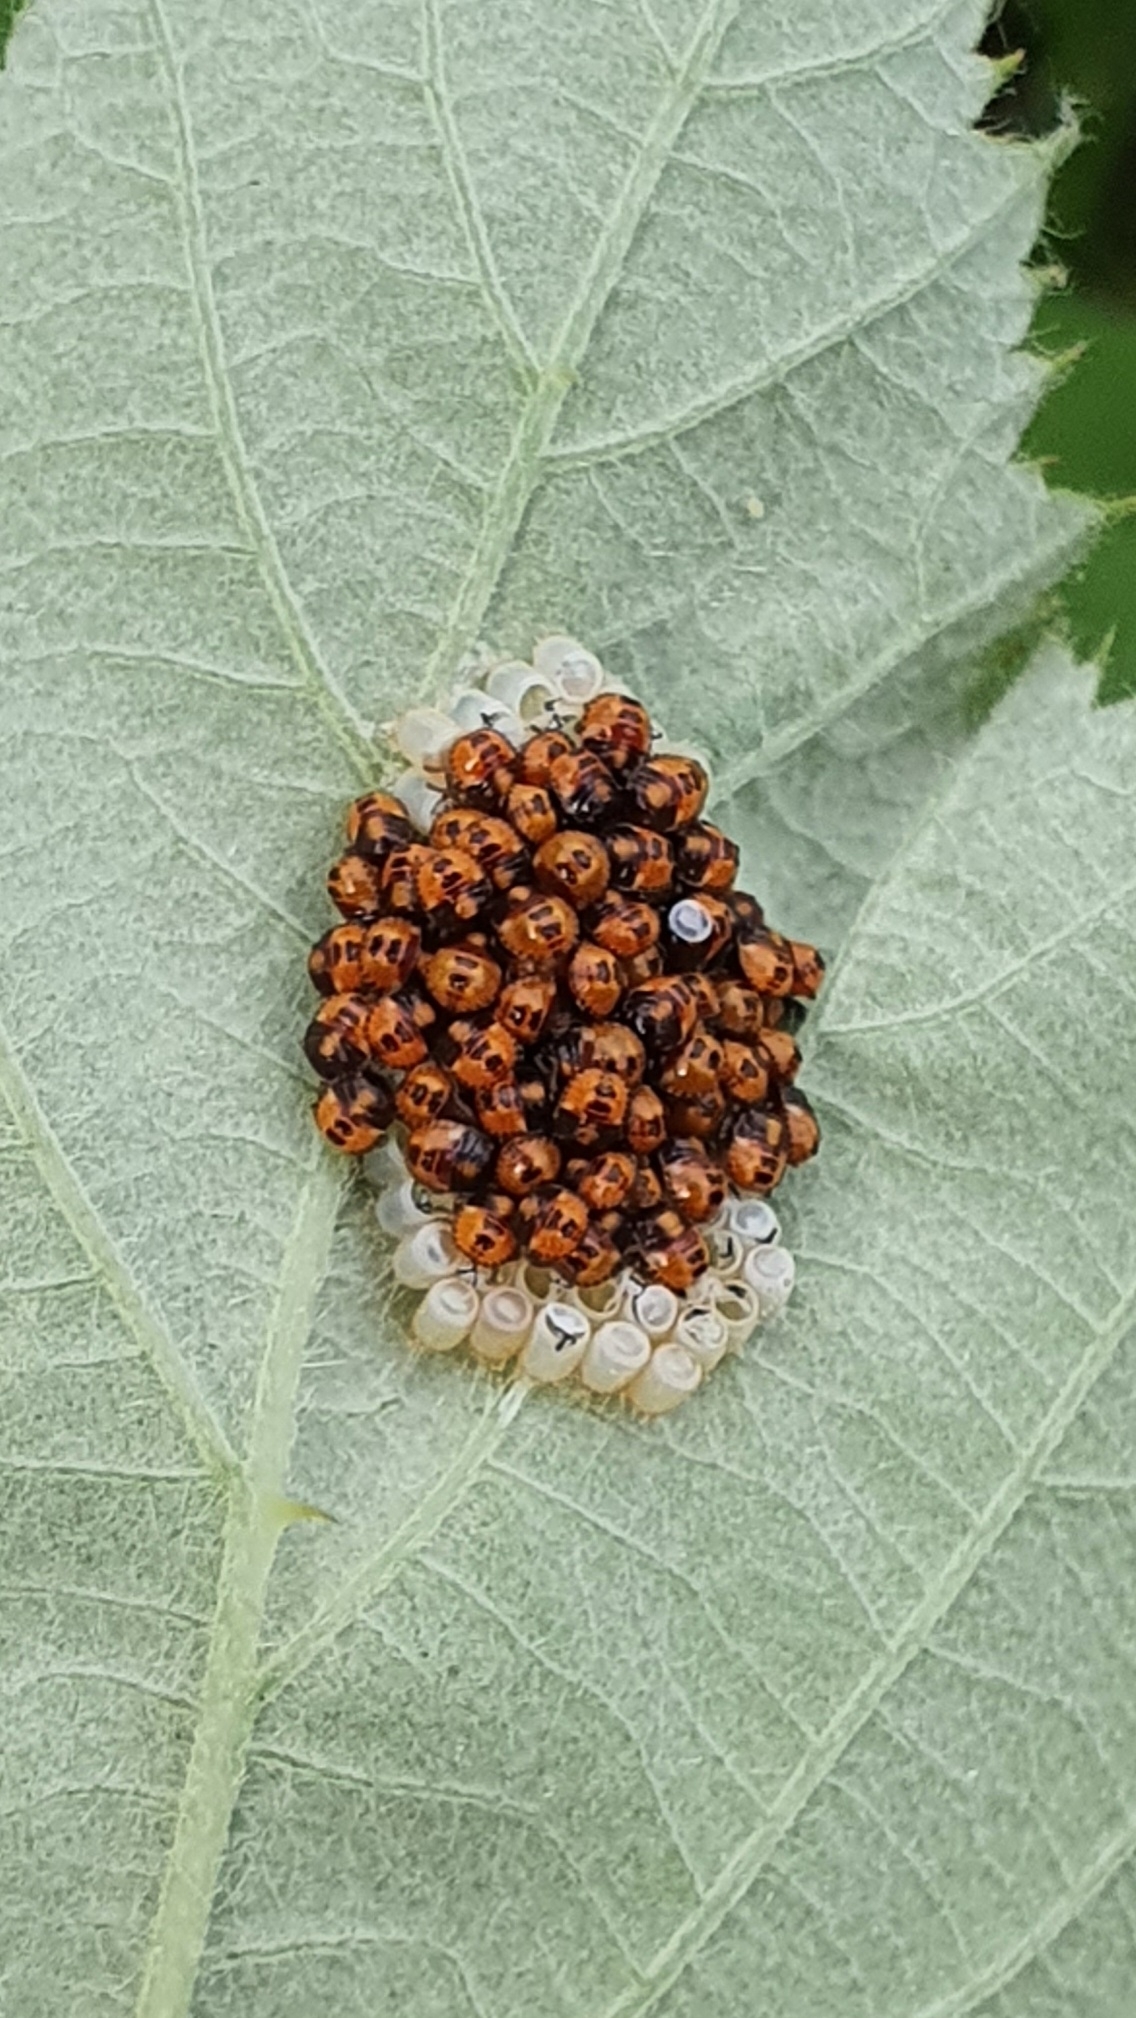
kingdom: Animalia
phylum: Arthropoda
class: Insecta
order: Hemiptera
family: Pentatomidae
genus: Nezara
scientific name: Nezara viridula
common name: Southern green stink bug
